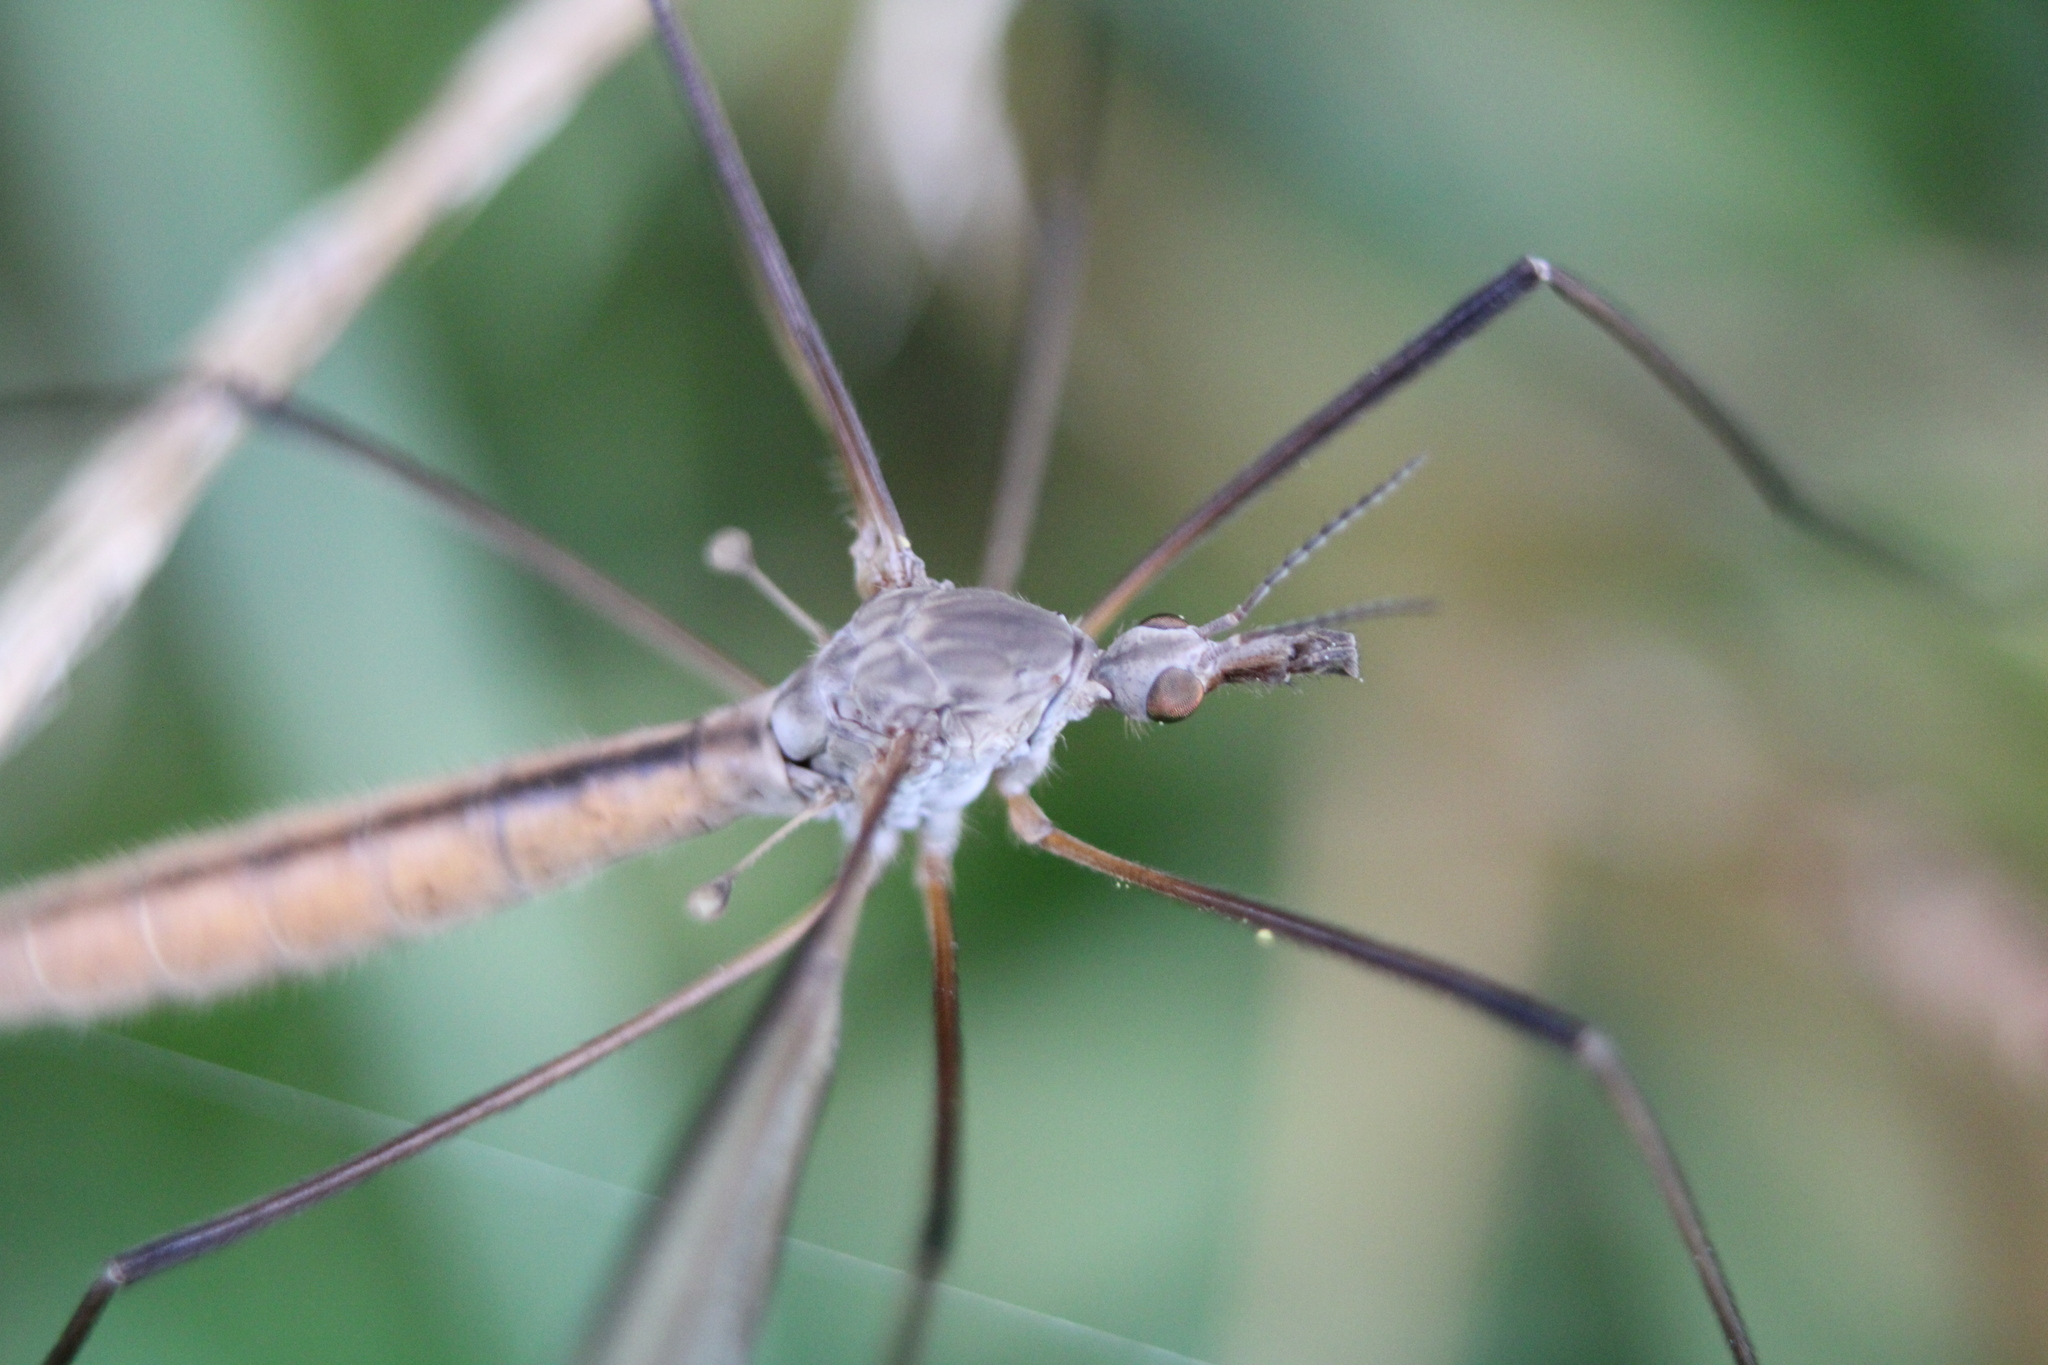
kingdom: Animalia
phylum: Arthropoda
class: Insecta
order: Diptera
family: Tipulidae
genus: Tipula
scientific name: Tipula paludosa
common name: European cranefly
